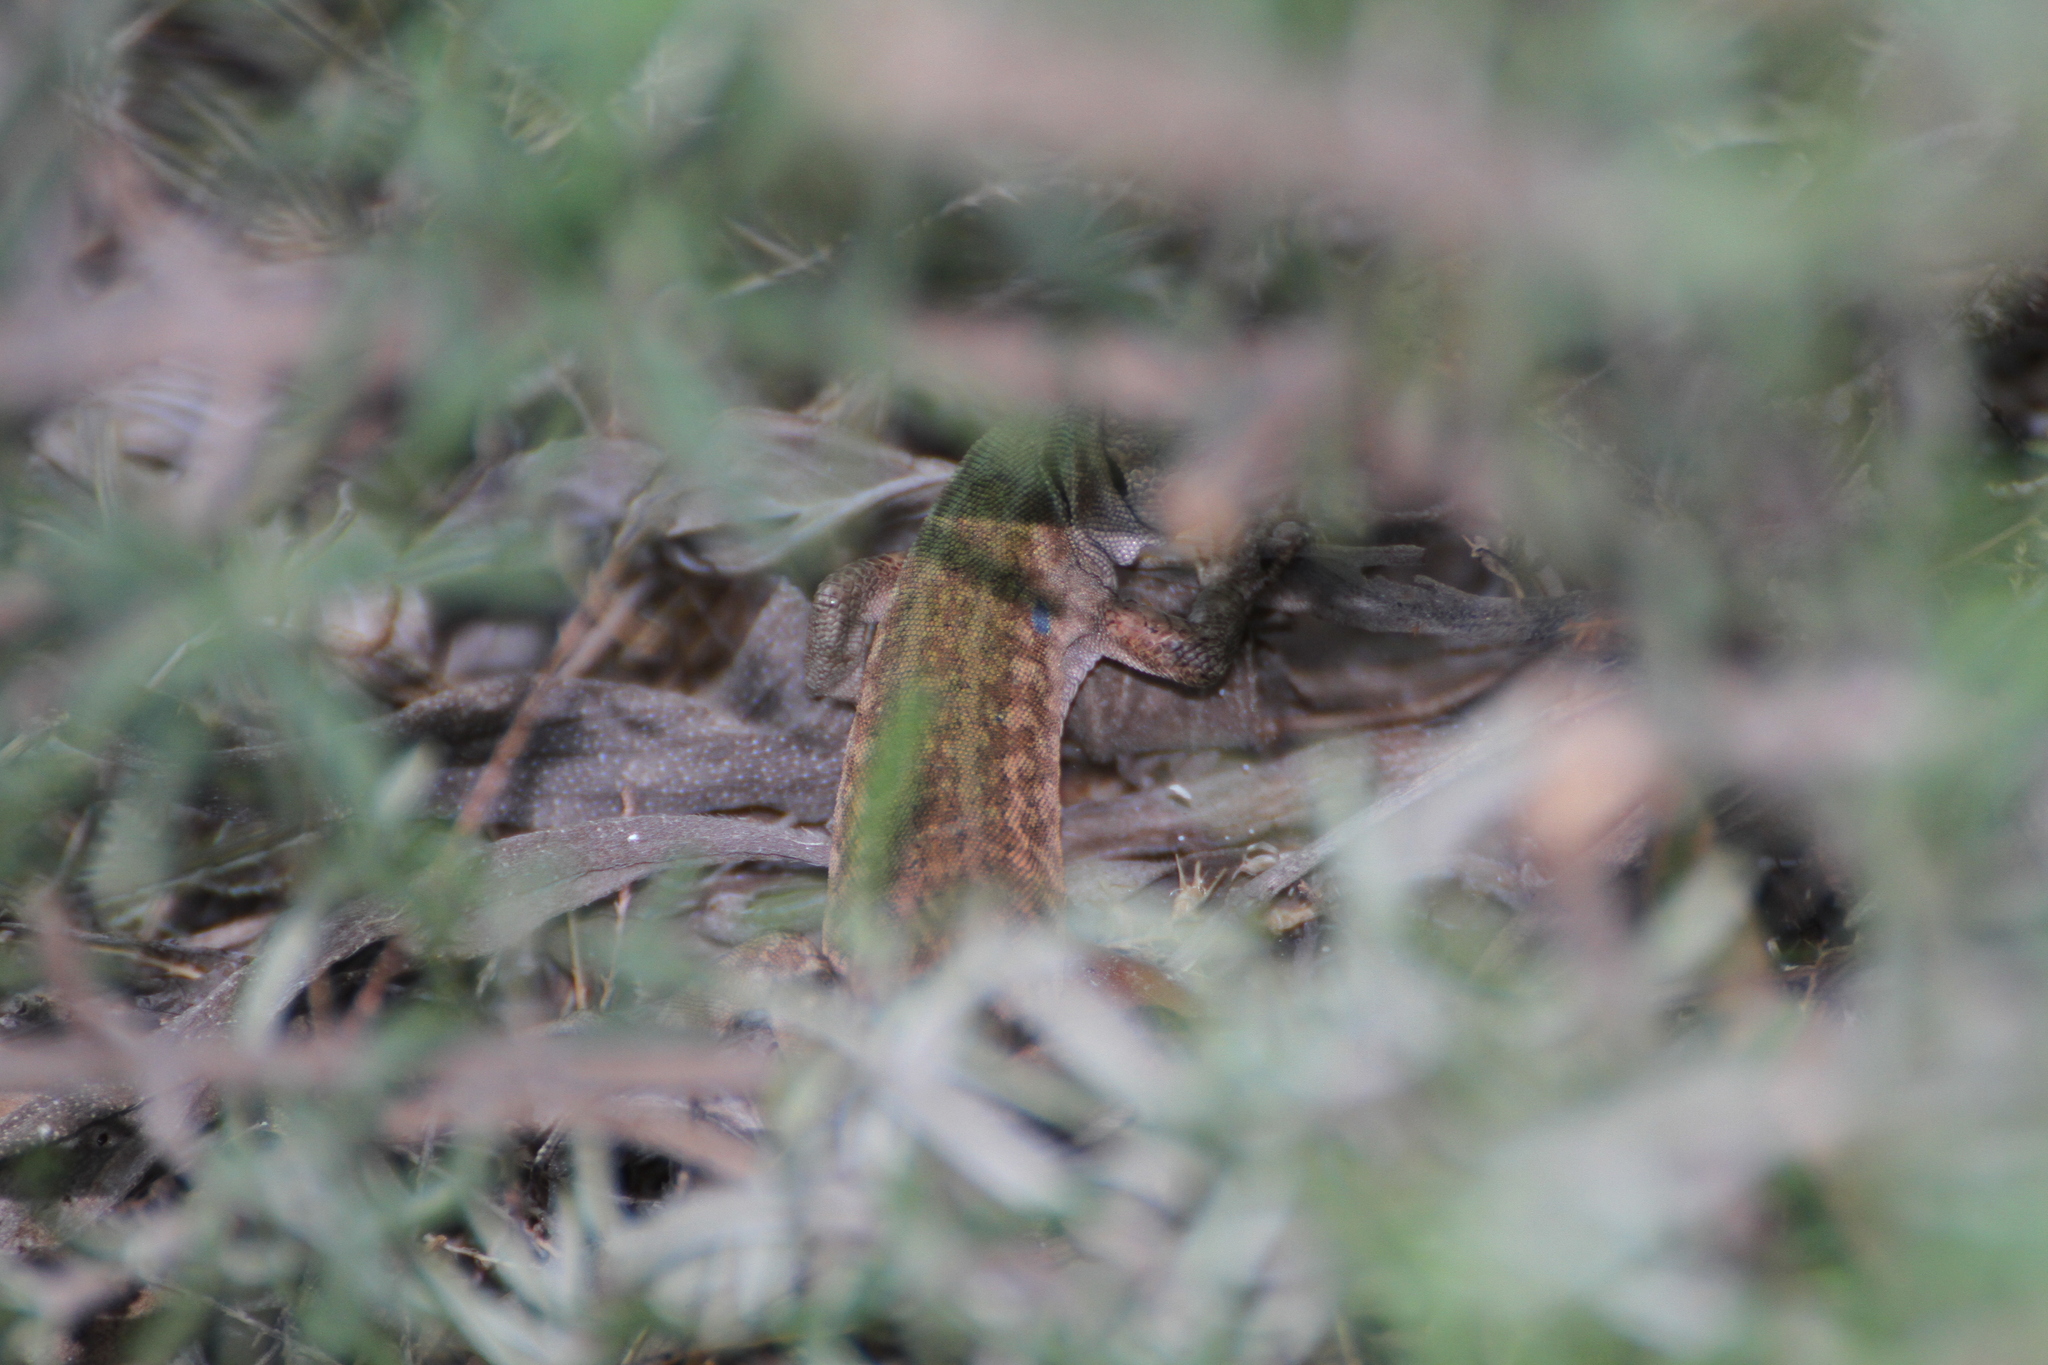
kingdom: Animalia
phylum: Chordata
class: Squamata
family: Lacertidae
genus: Podarcis
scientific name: Podarcis siculus
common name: Italian wall lizard
